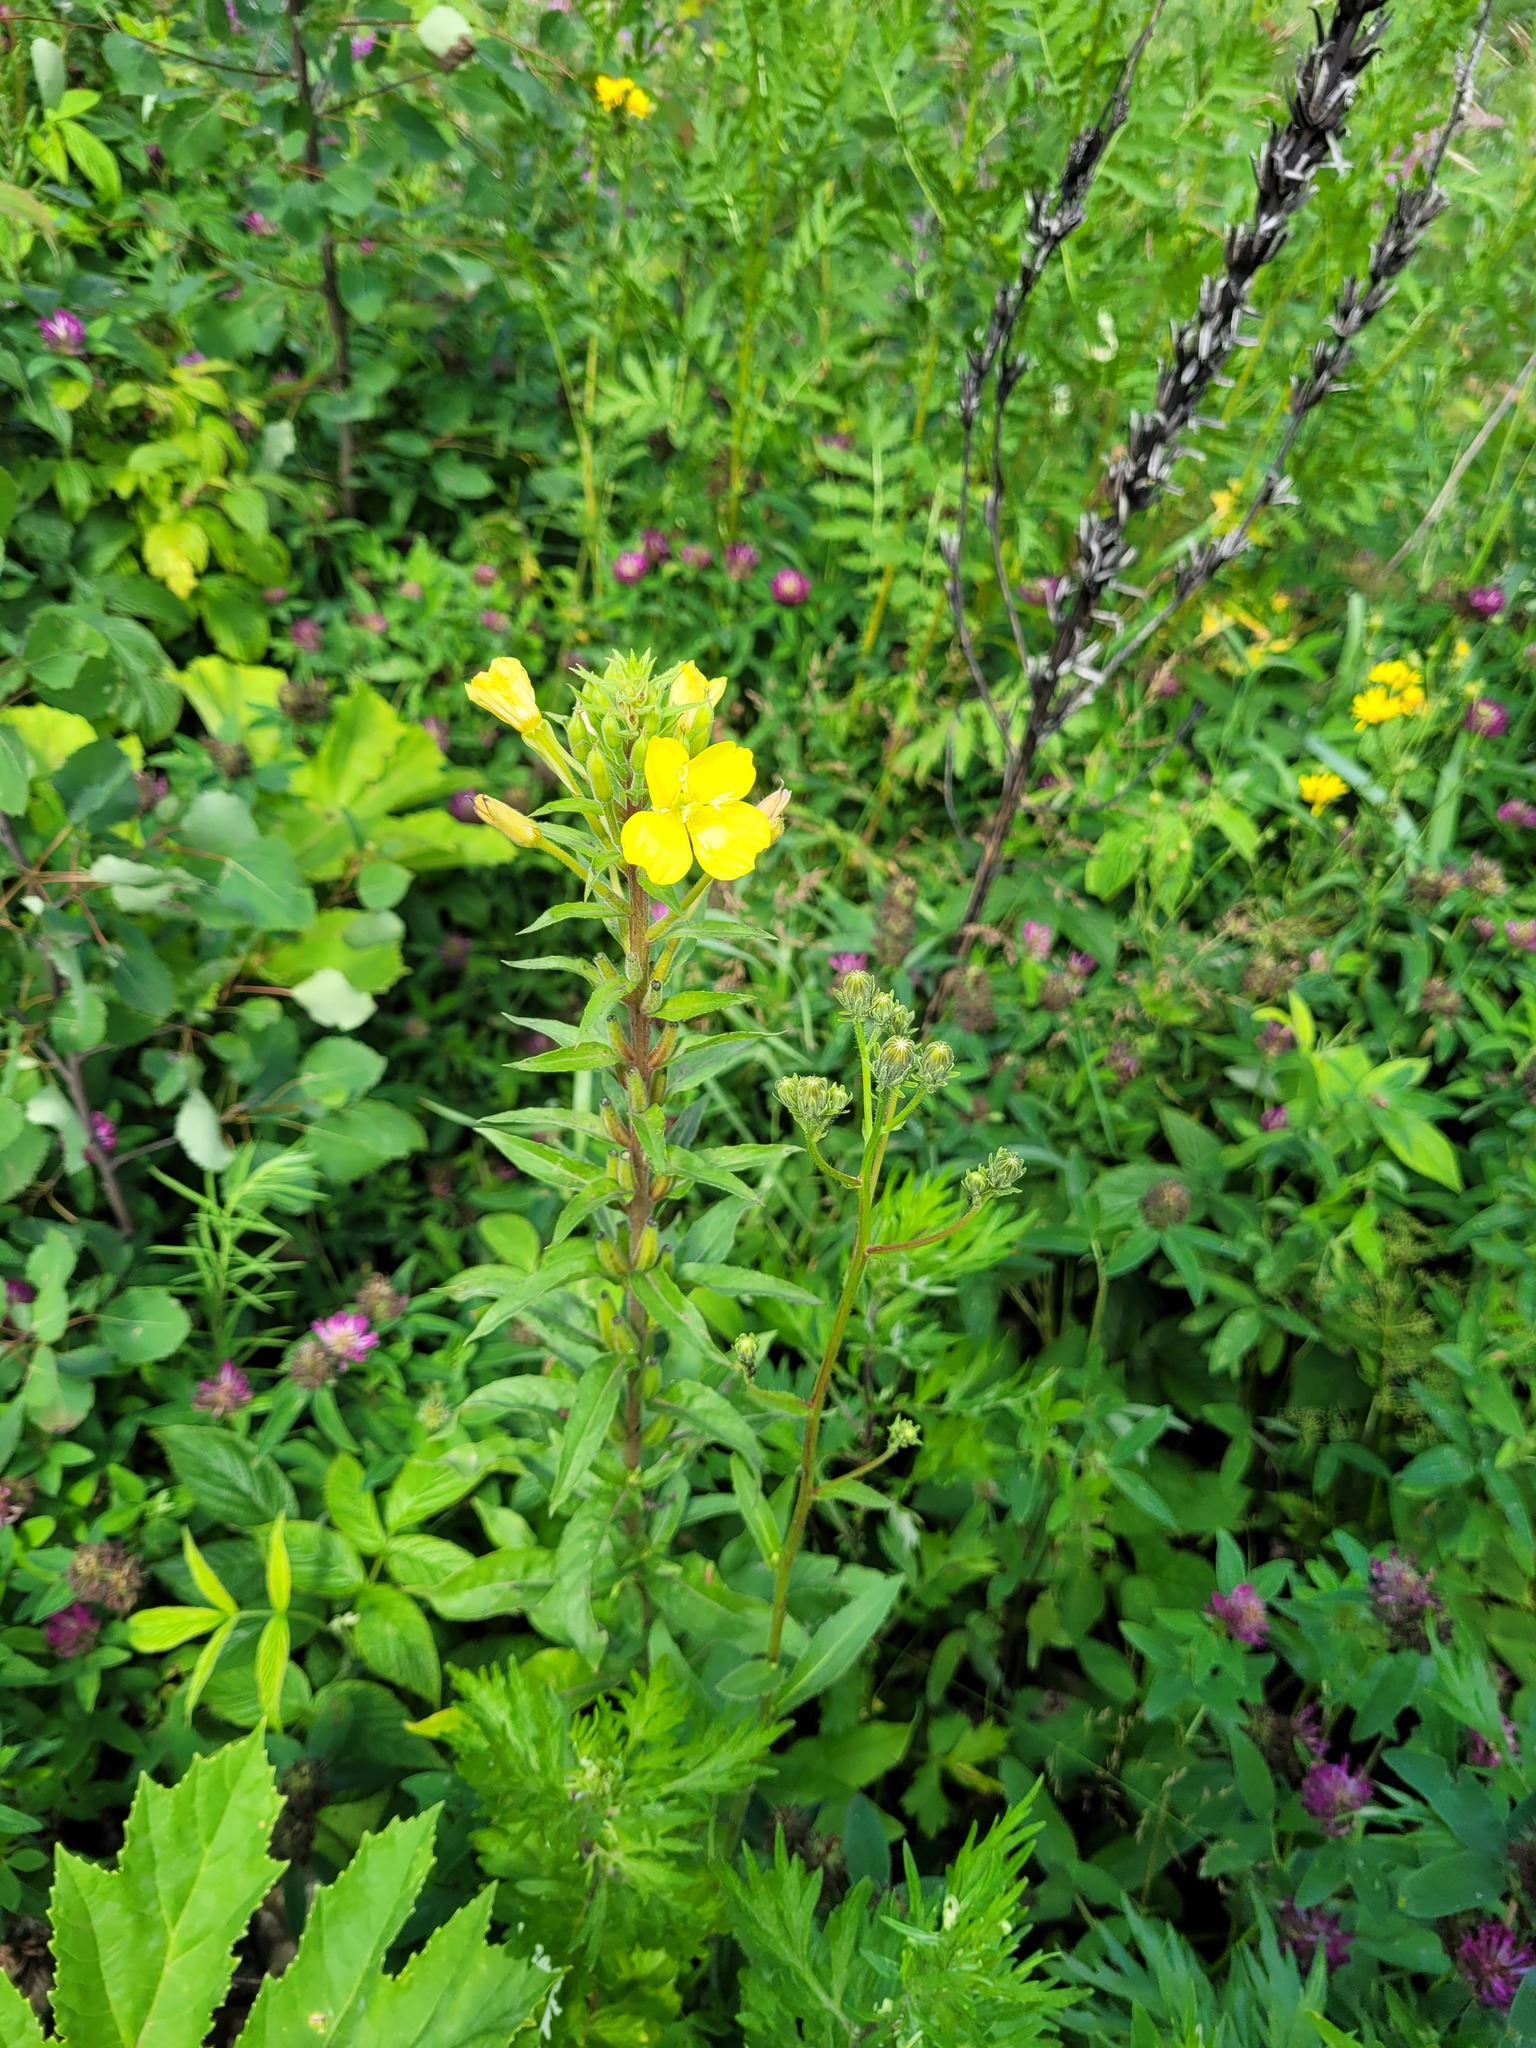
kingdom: Plantae
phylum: Tracheophyta
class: Magnoliopsida
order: Myrtales
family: Onagraceae
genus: Oenothera
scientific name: Oenothera rubricaulis
